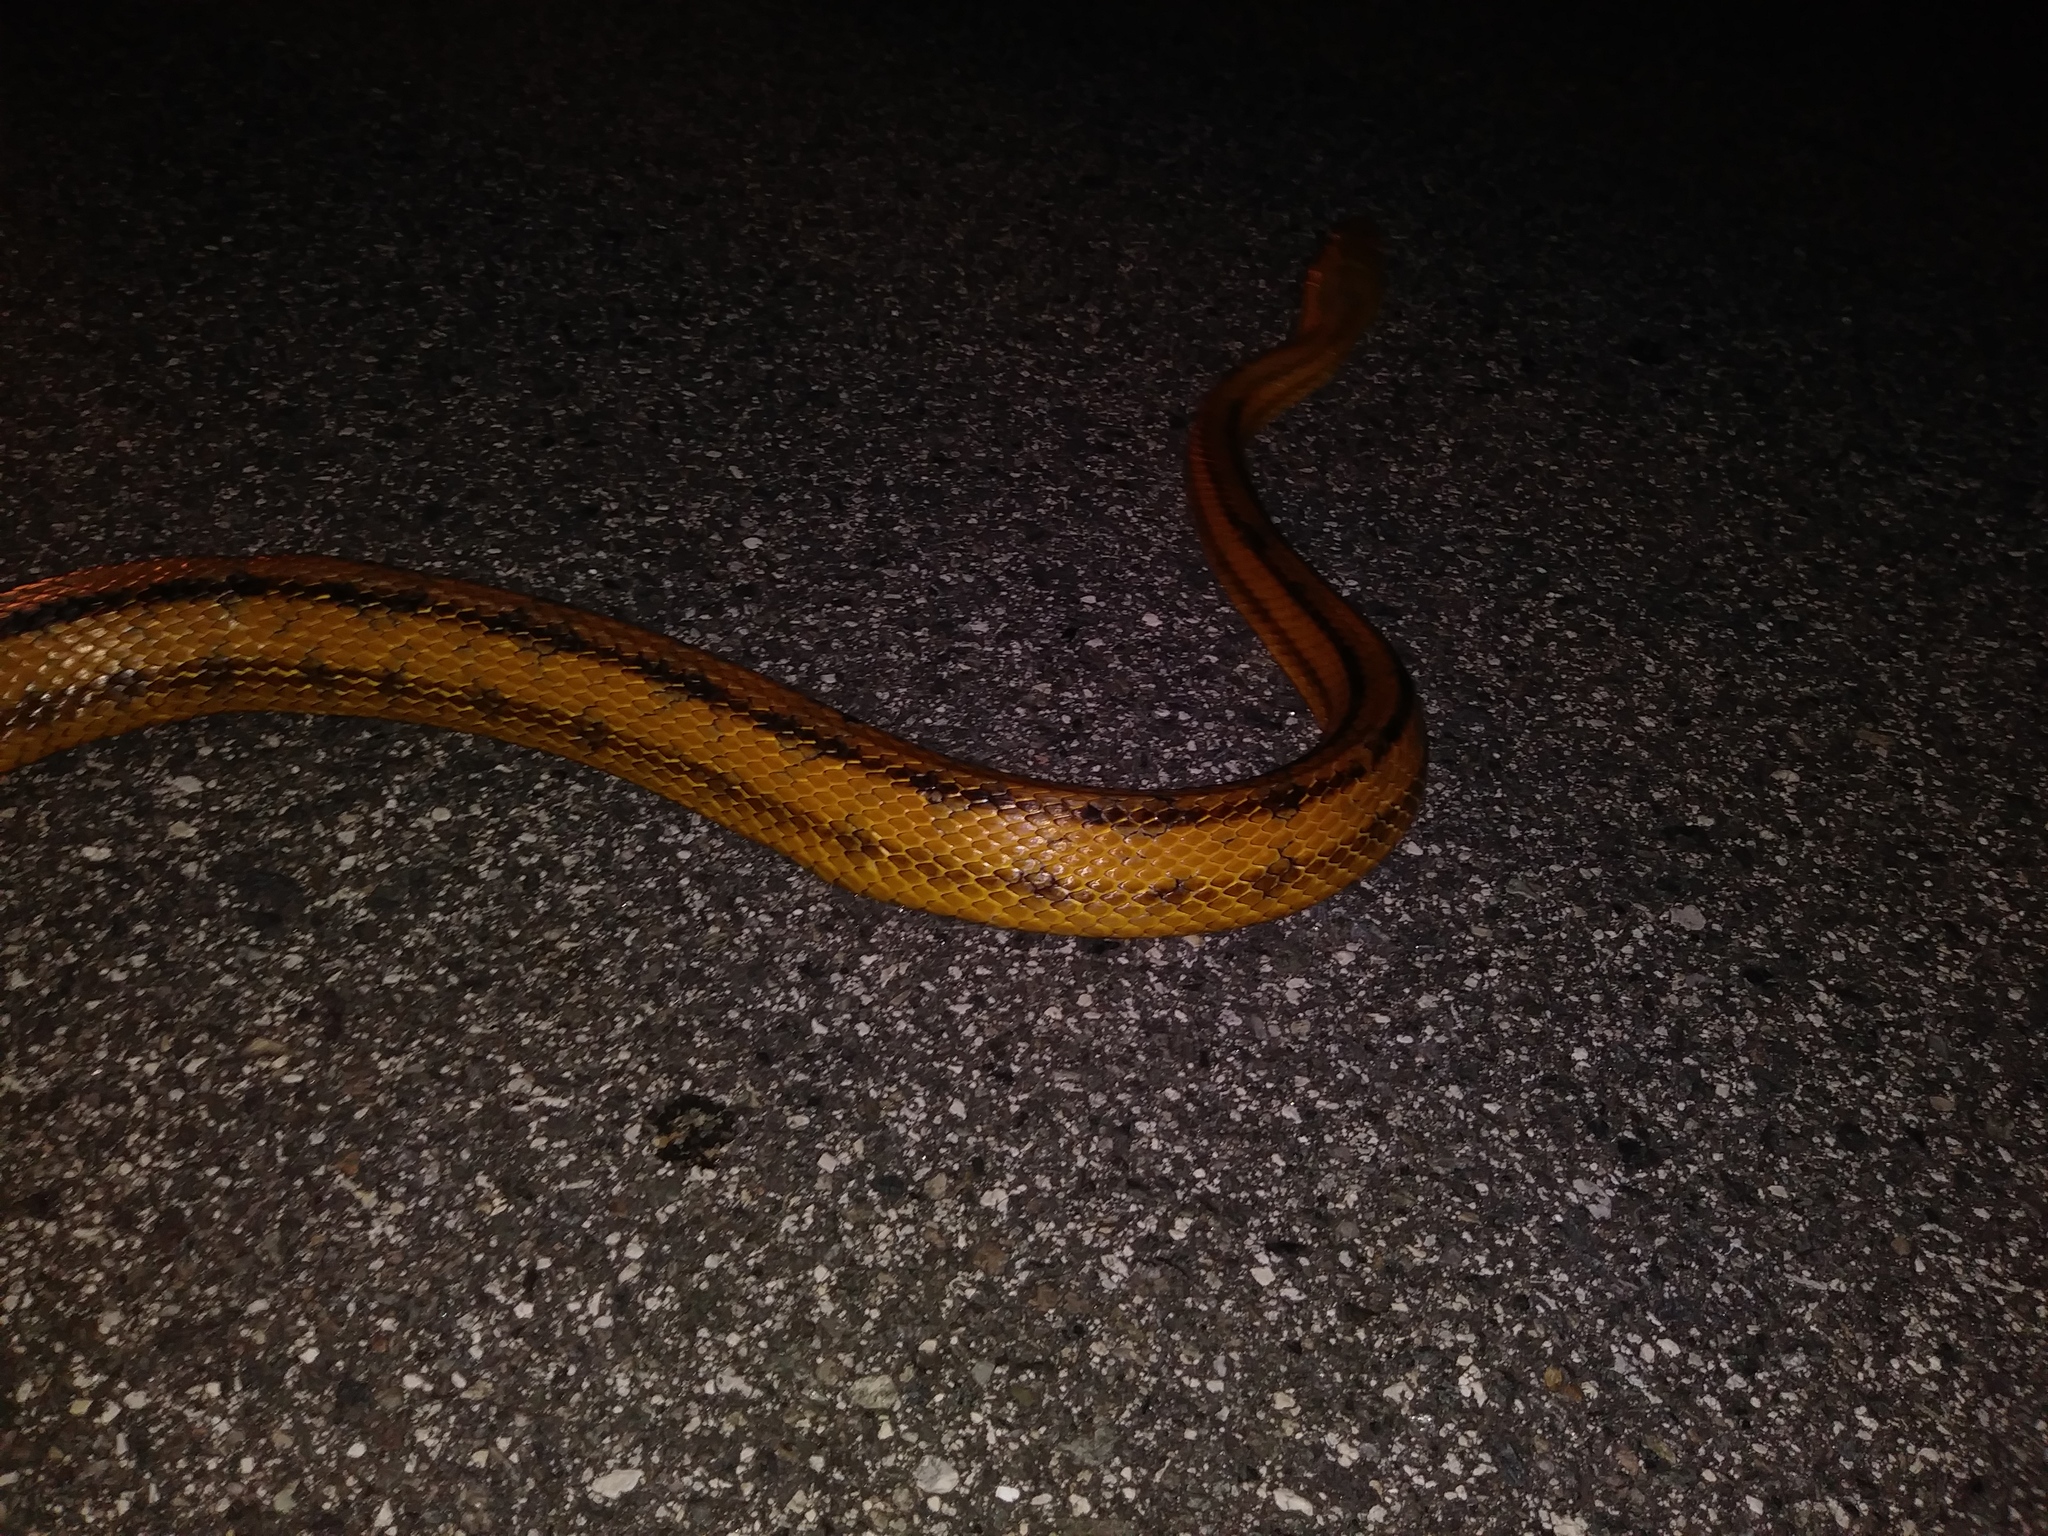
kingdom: Animalia
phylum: Chordata
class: Squamata
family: Colubridae
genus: Pantherophis
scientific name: Pantherophis alleghaniensis
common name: Eastern rat snake
